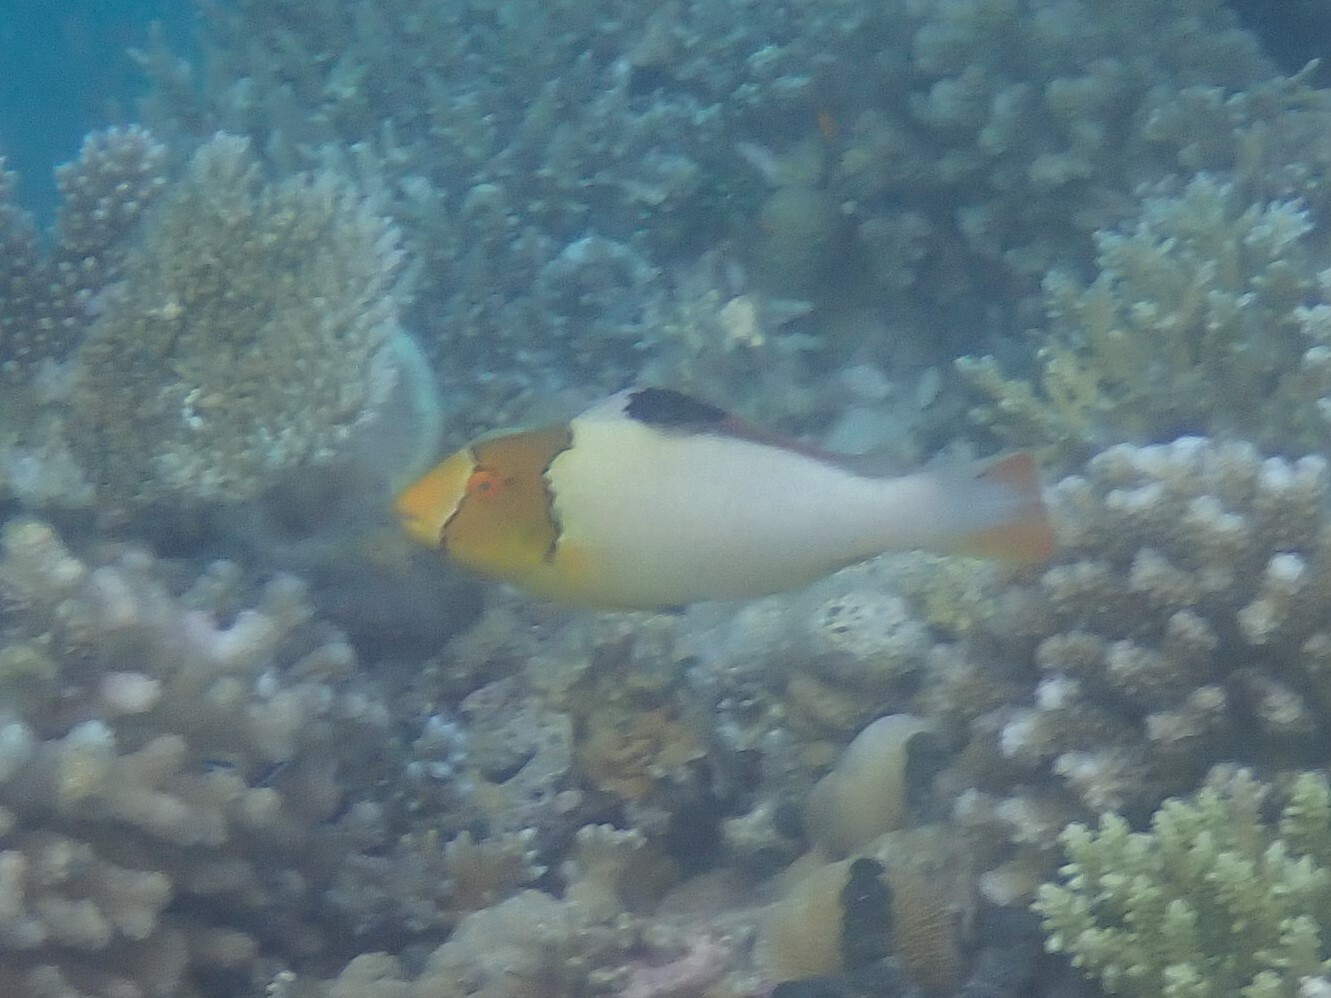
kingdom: Animalia
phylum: Chordata
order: Perciformes
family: Scaridae
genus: Cetoscarus
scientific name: Cetoscarus ocellatus
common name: Bicolor parrotfish
